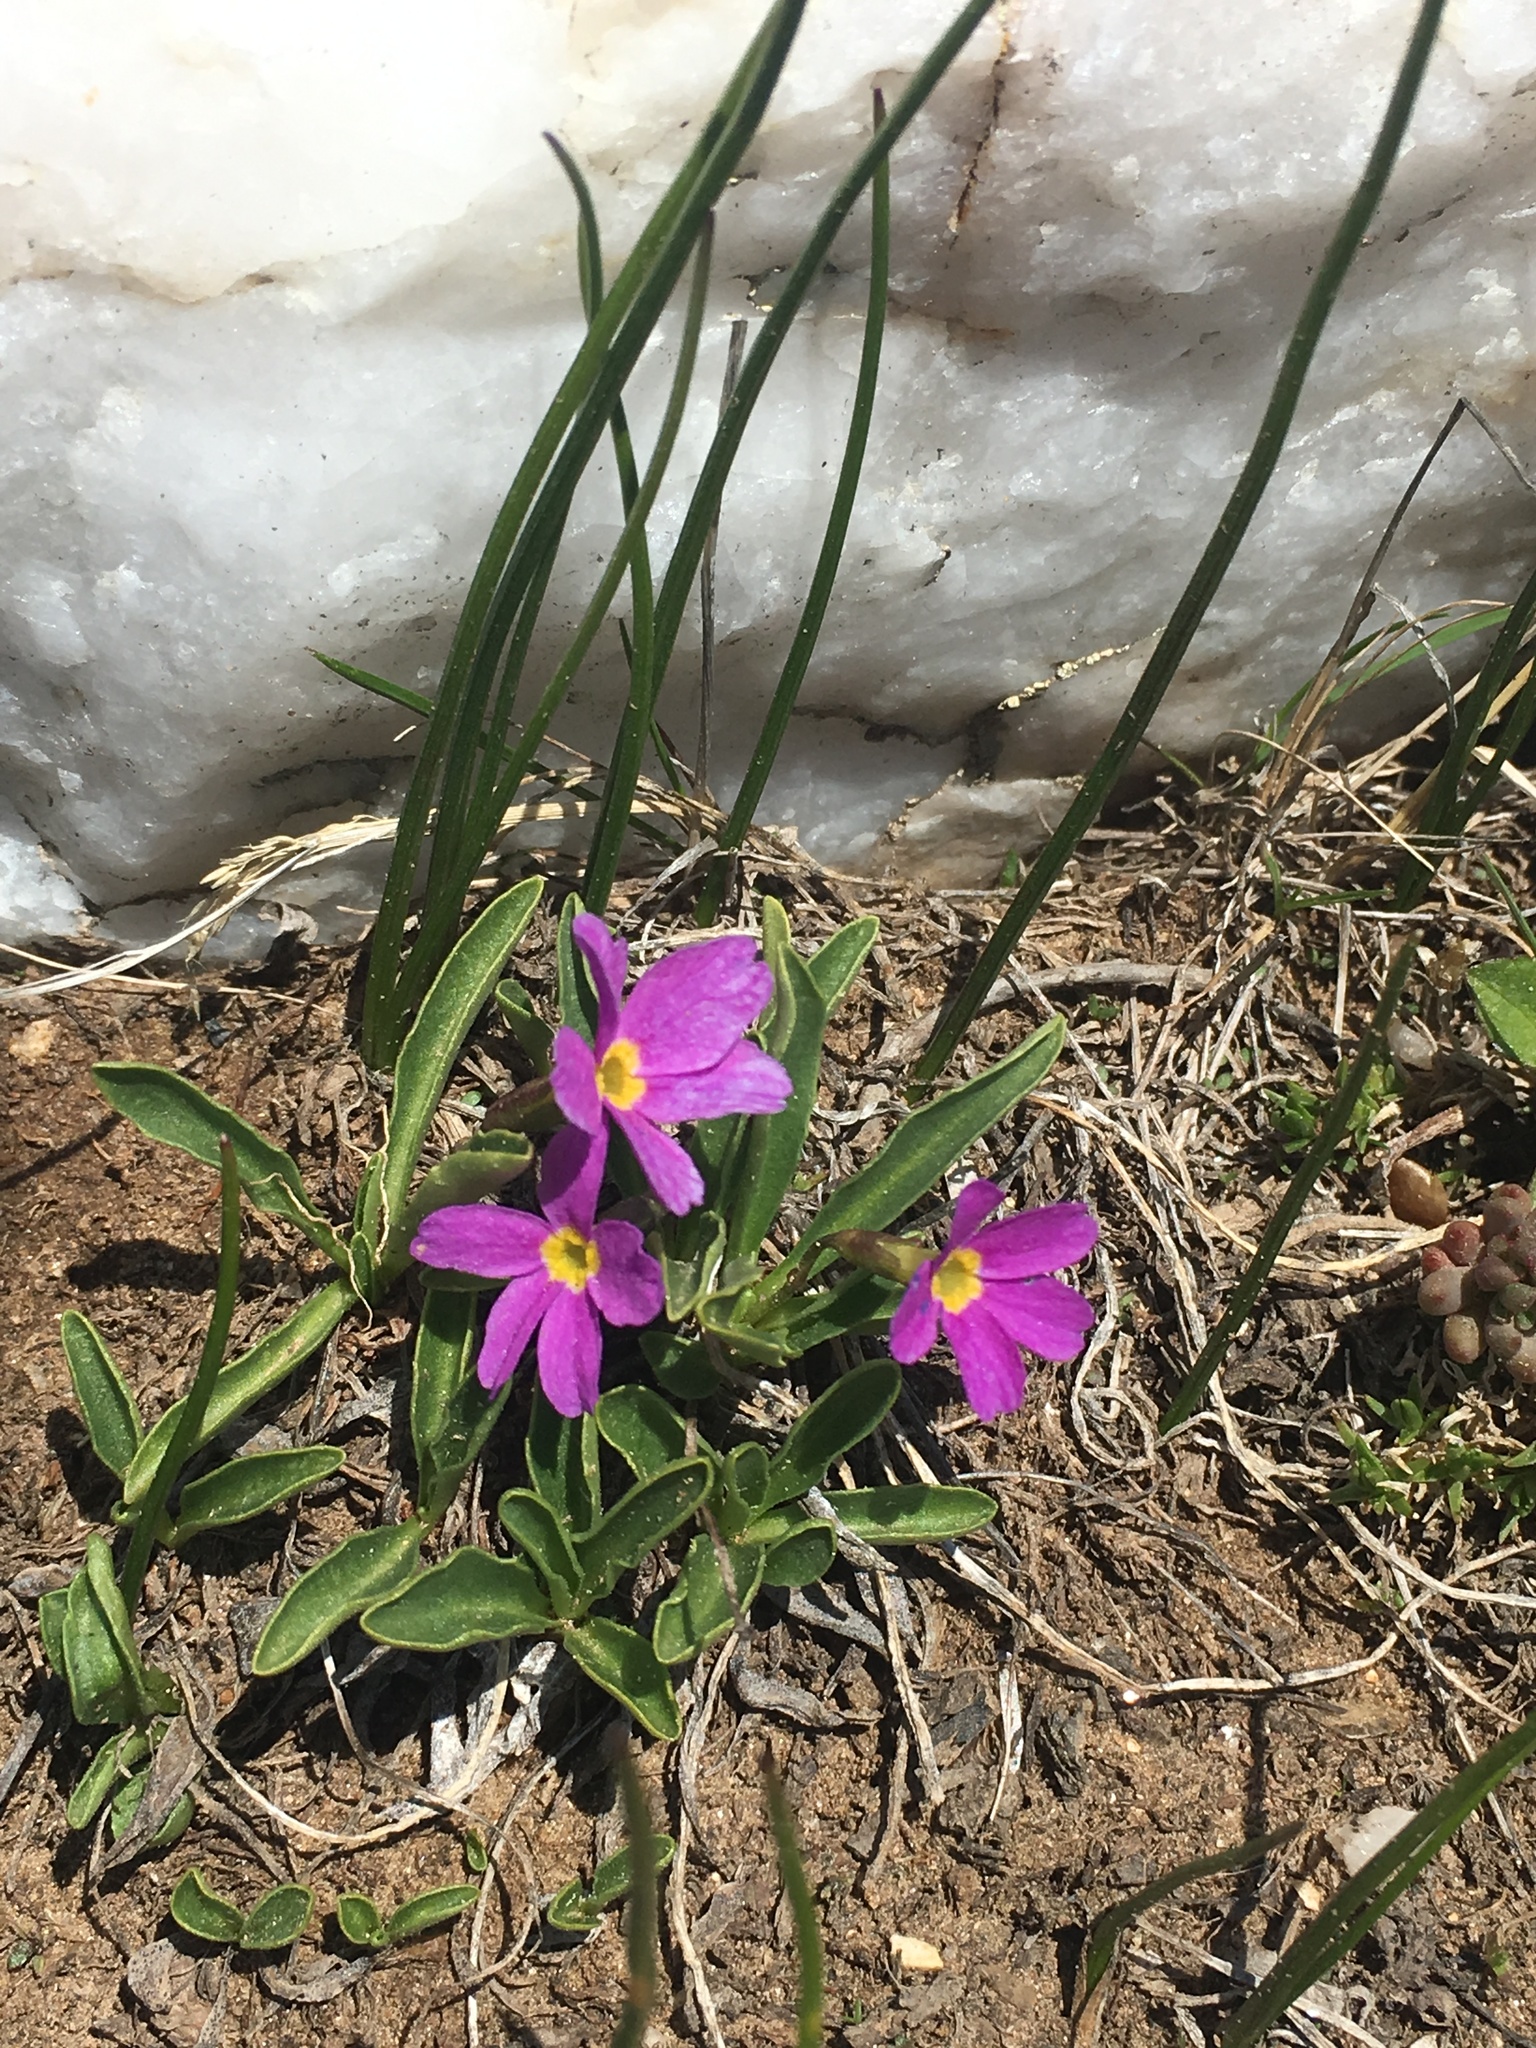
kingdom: Plantae
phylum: Tracheophyta
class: Magnoliopsida
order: Ericales
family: Primulaceae
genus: Primula
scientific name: Primula angustifolia
